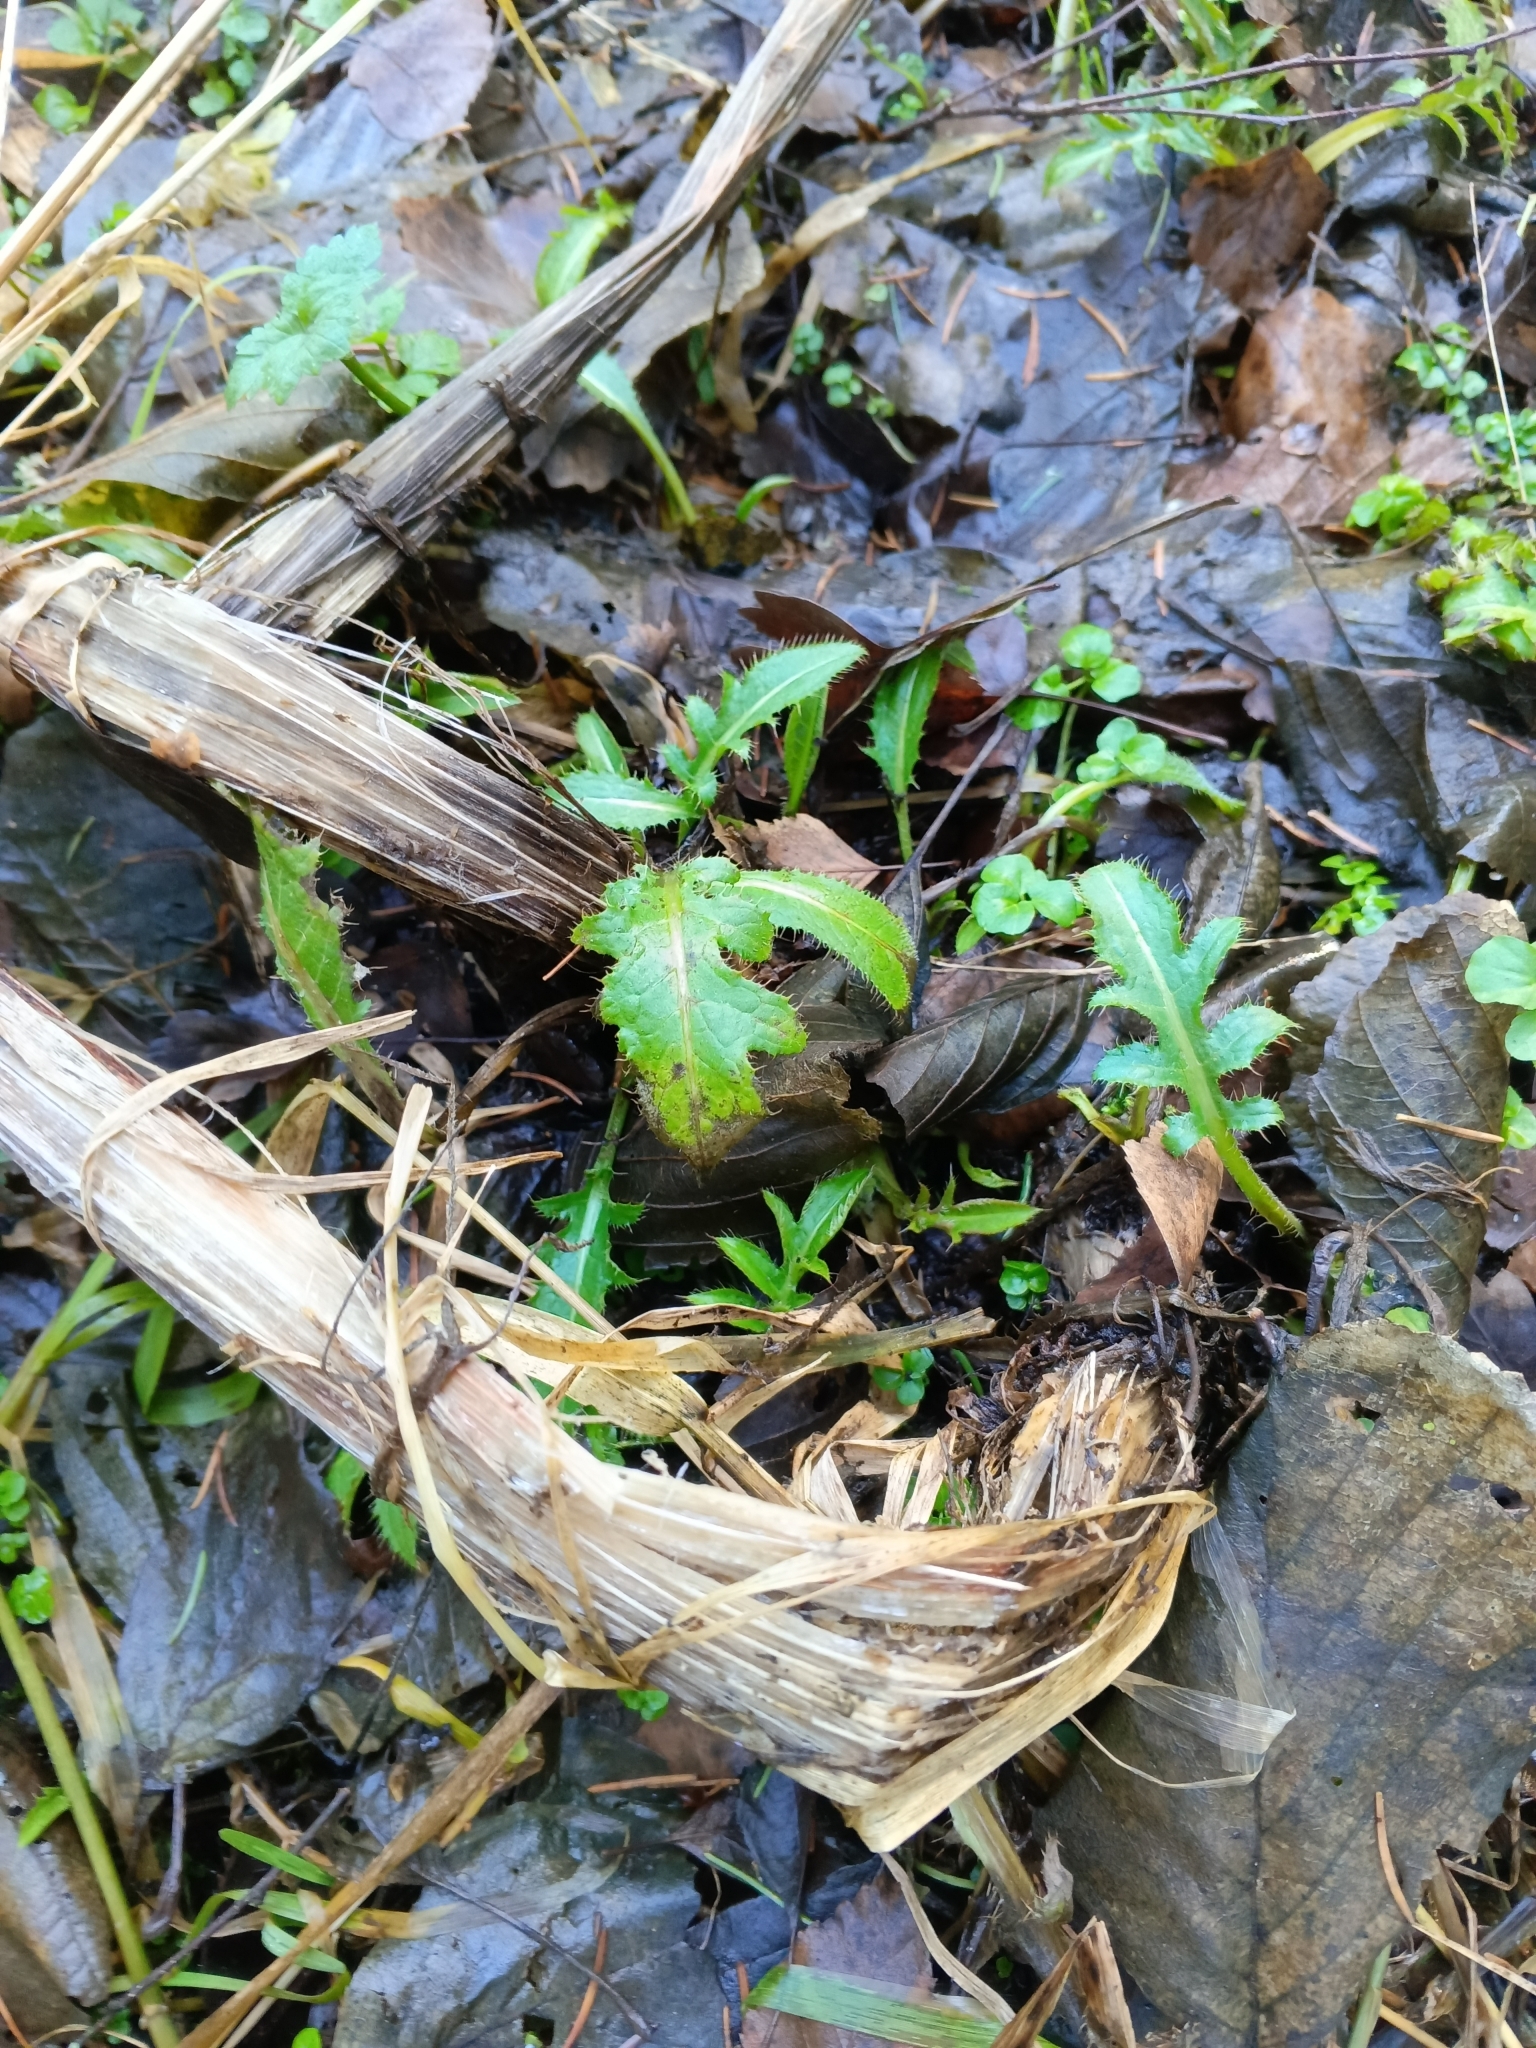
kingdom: Plantae
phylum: Tracheophyta
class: Magnoliopsida
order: Asterales
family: Asteraceae
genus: Cirsium
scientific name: Cirsium oleraceum
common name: Cabbage thistle
